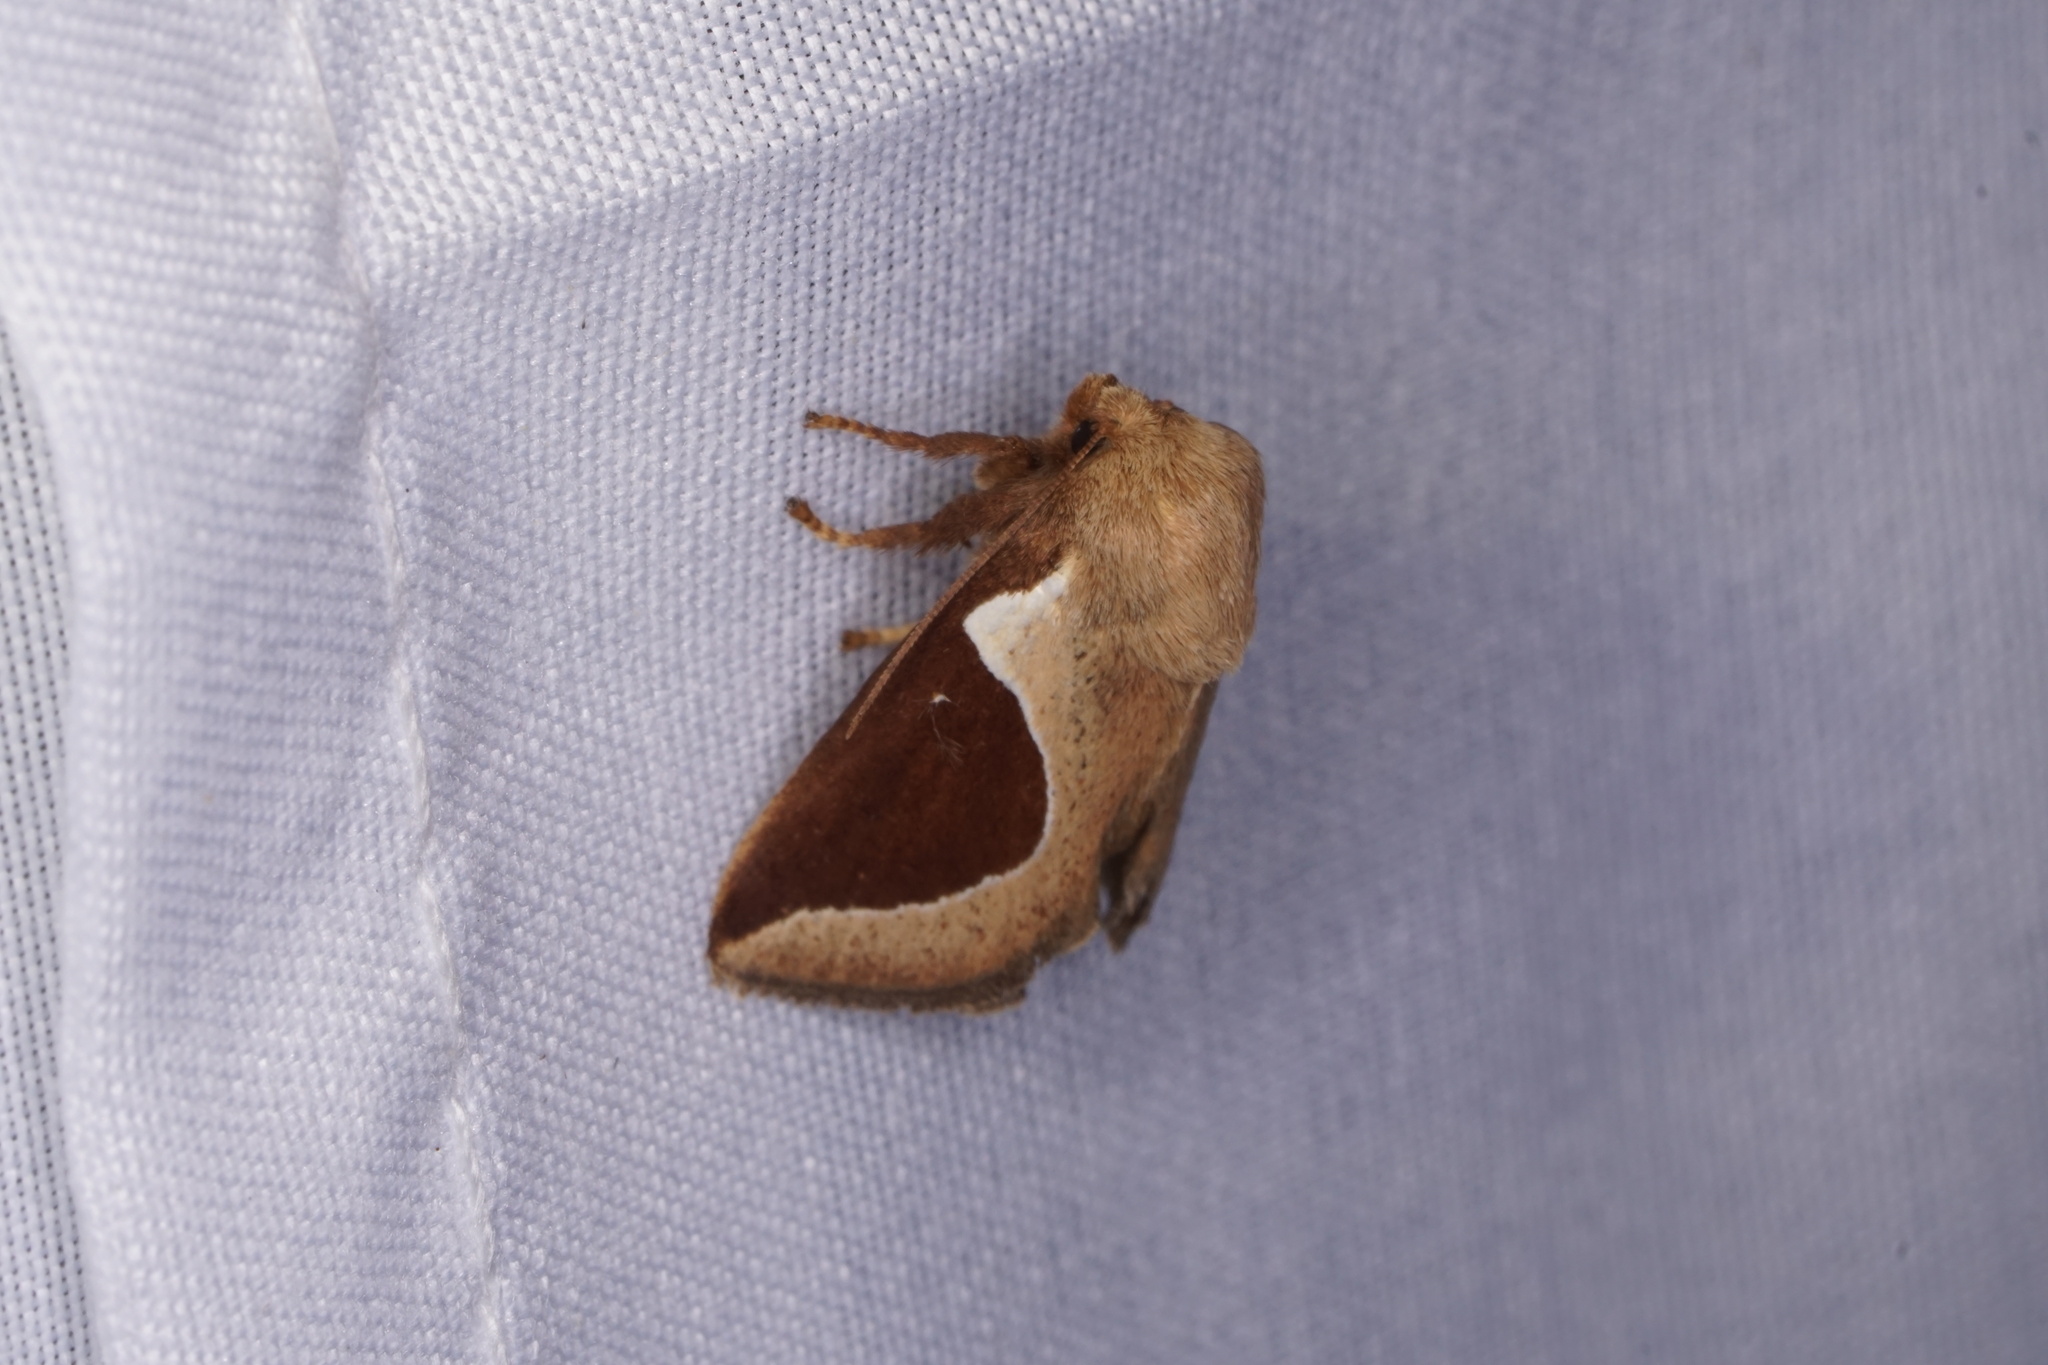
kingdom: Animalia
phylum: Arthropoda
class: Insecta
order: Lepidoptera
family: Limacodidae
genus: Prolimacodes
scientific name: Prolimacodes badia
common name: Skiff moth
